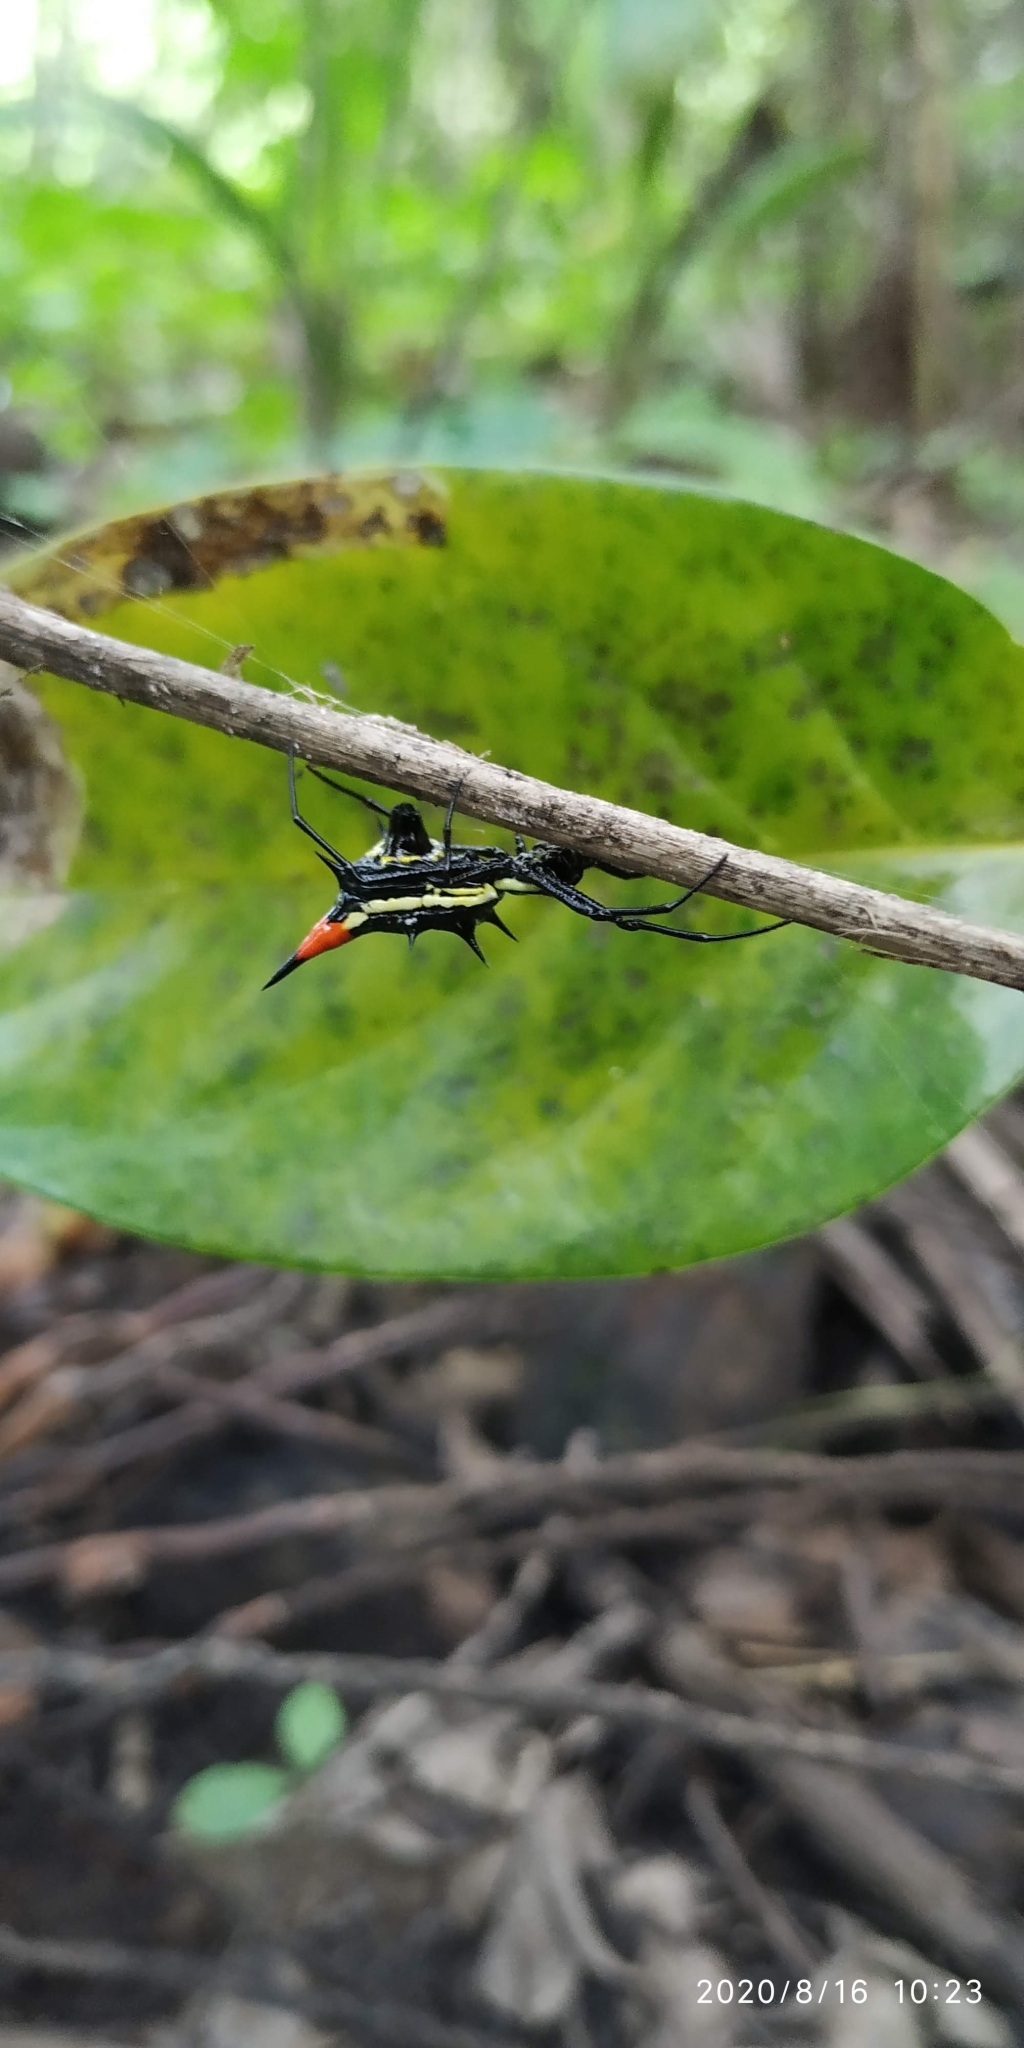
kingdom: Animalia
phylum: Arthropoda
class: Arachnida
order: Araneae
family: Araneidae
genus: Micrathena
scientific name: Micrathena schreibersi
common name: Orb weavers
